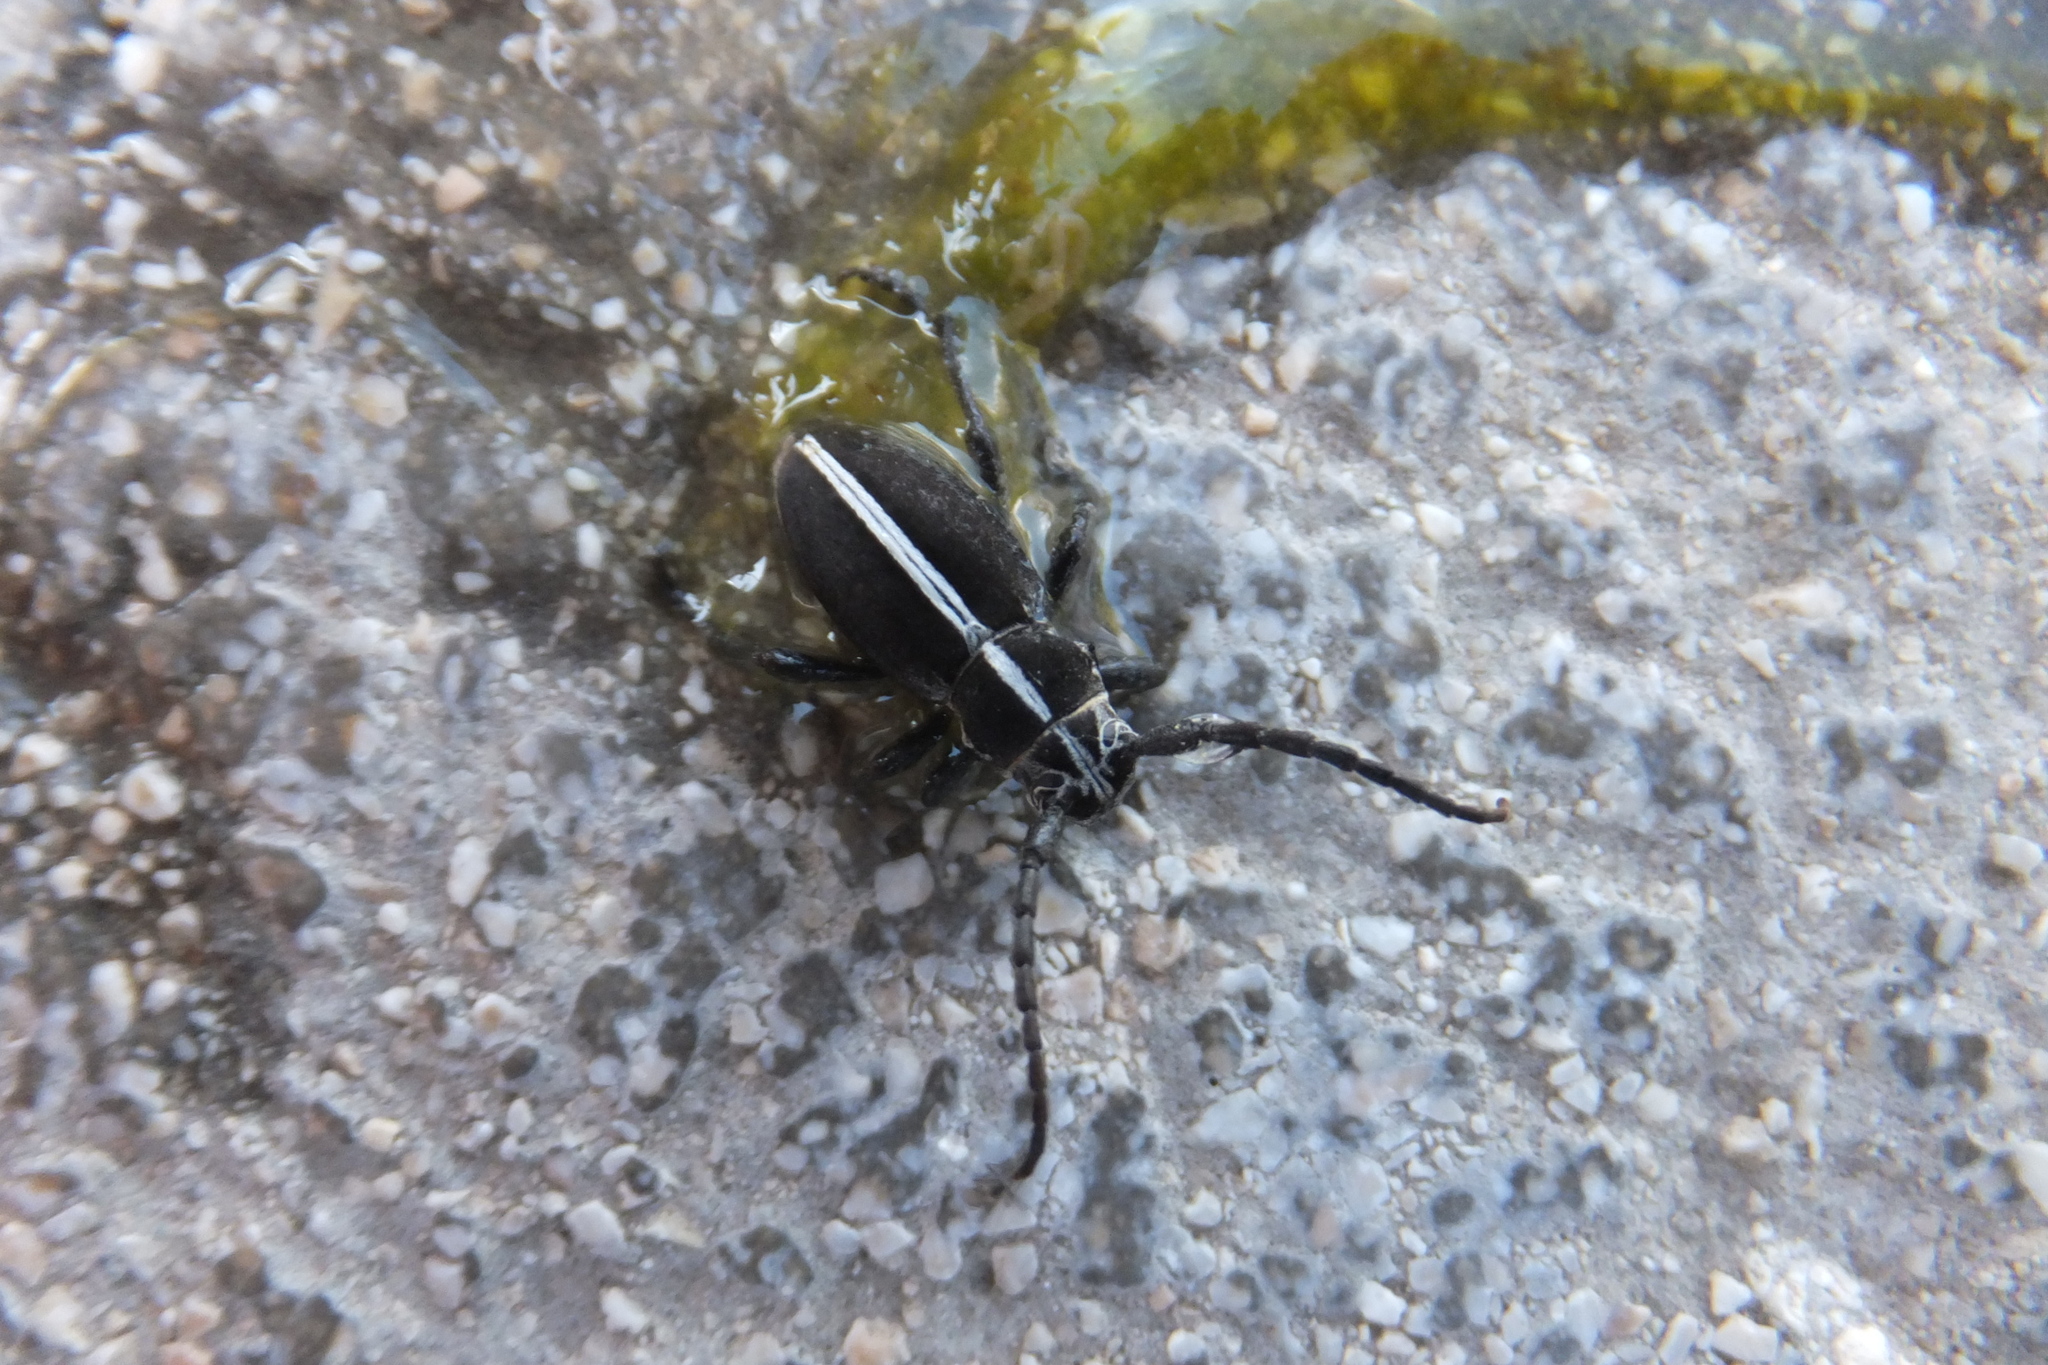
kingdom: Animalia
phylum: Arthropoda
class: Insecta
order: Coleoptera
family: Cerambycidae
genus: Dorcadion
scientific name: Dorcadion arenarium
